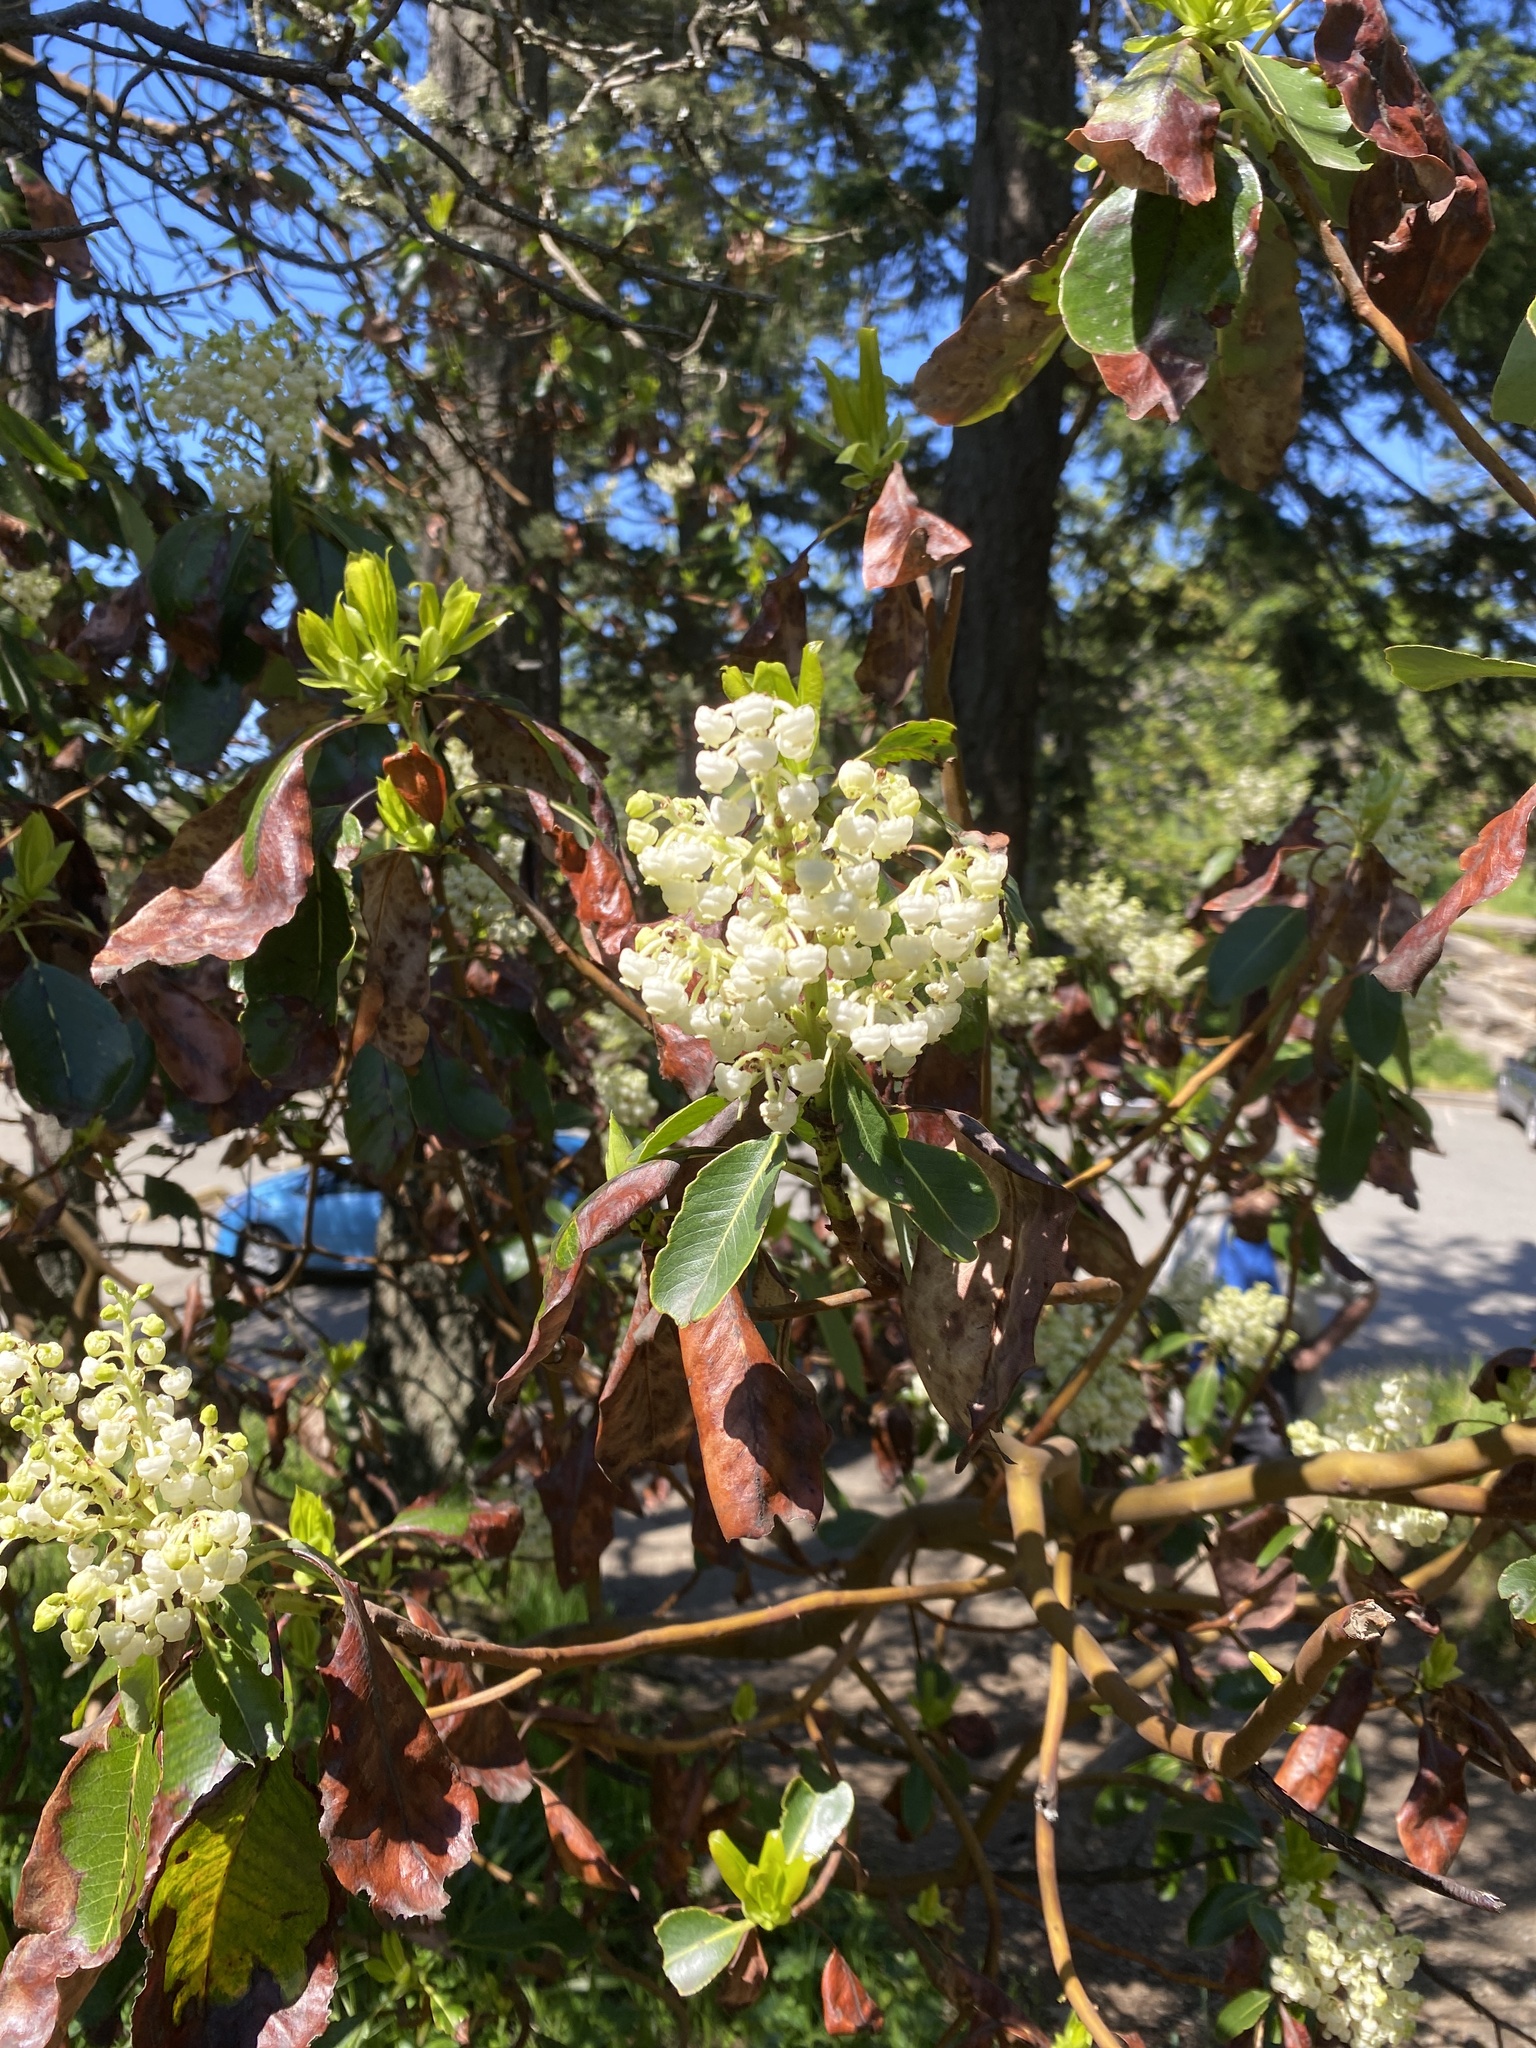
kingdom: Plantae
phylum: Tracheophyta
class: Magnoliopsida
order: Ericales
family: Ericaceae
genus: Arbutus
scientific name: Arbutus menziesii
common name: Pacific madrone
